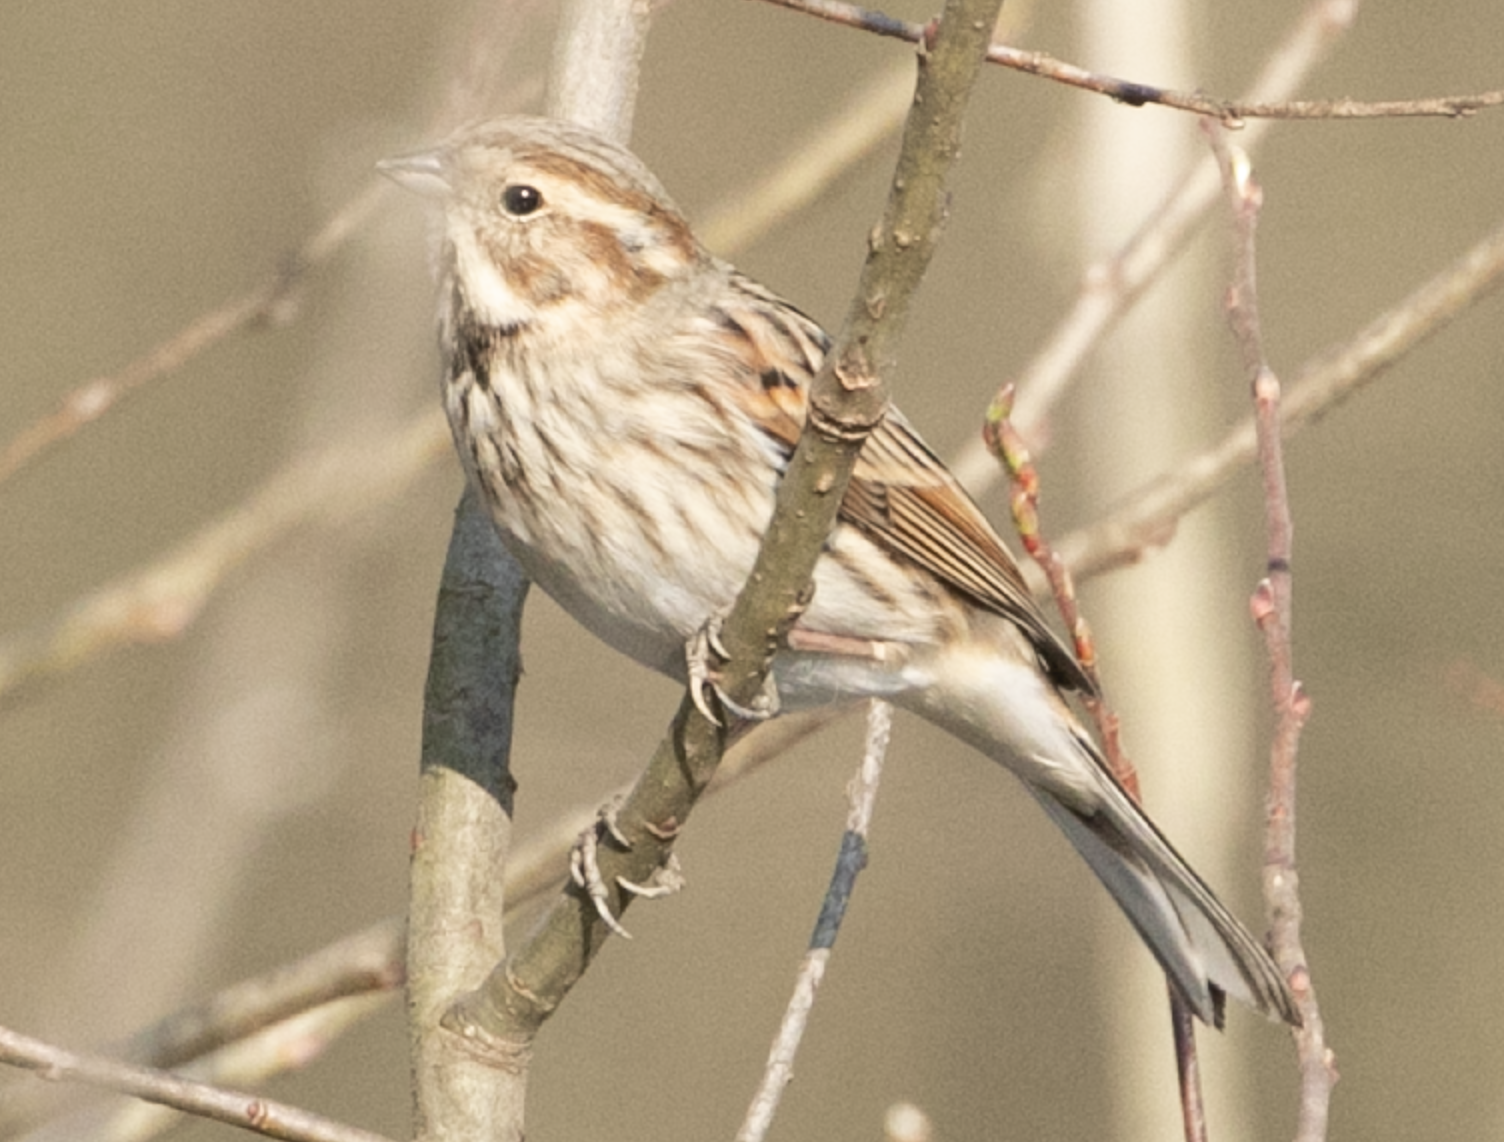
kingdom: Animalia
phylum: Chordata
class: Aves
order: Passeriformes
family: Emberizidae
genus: Emberiza
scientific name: Emberiza schoeniclus
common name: Reed bunting
